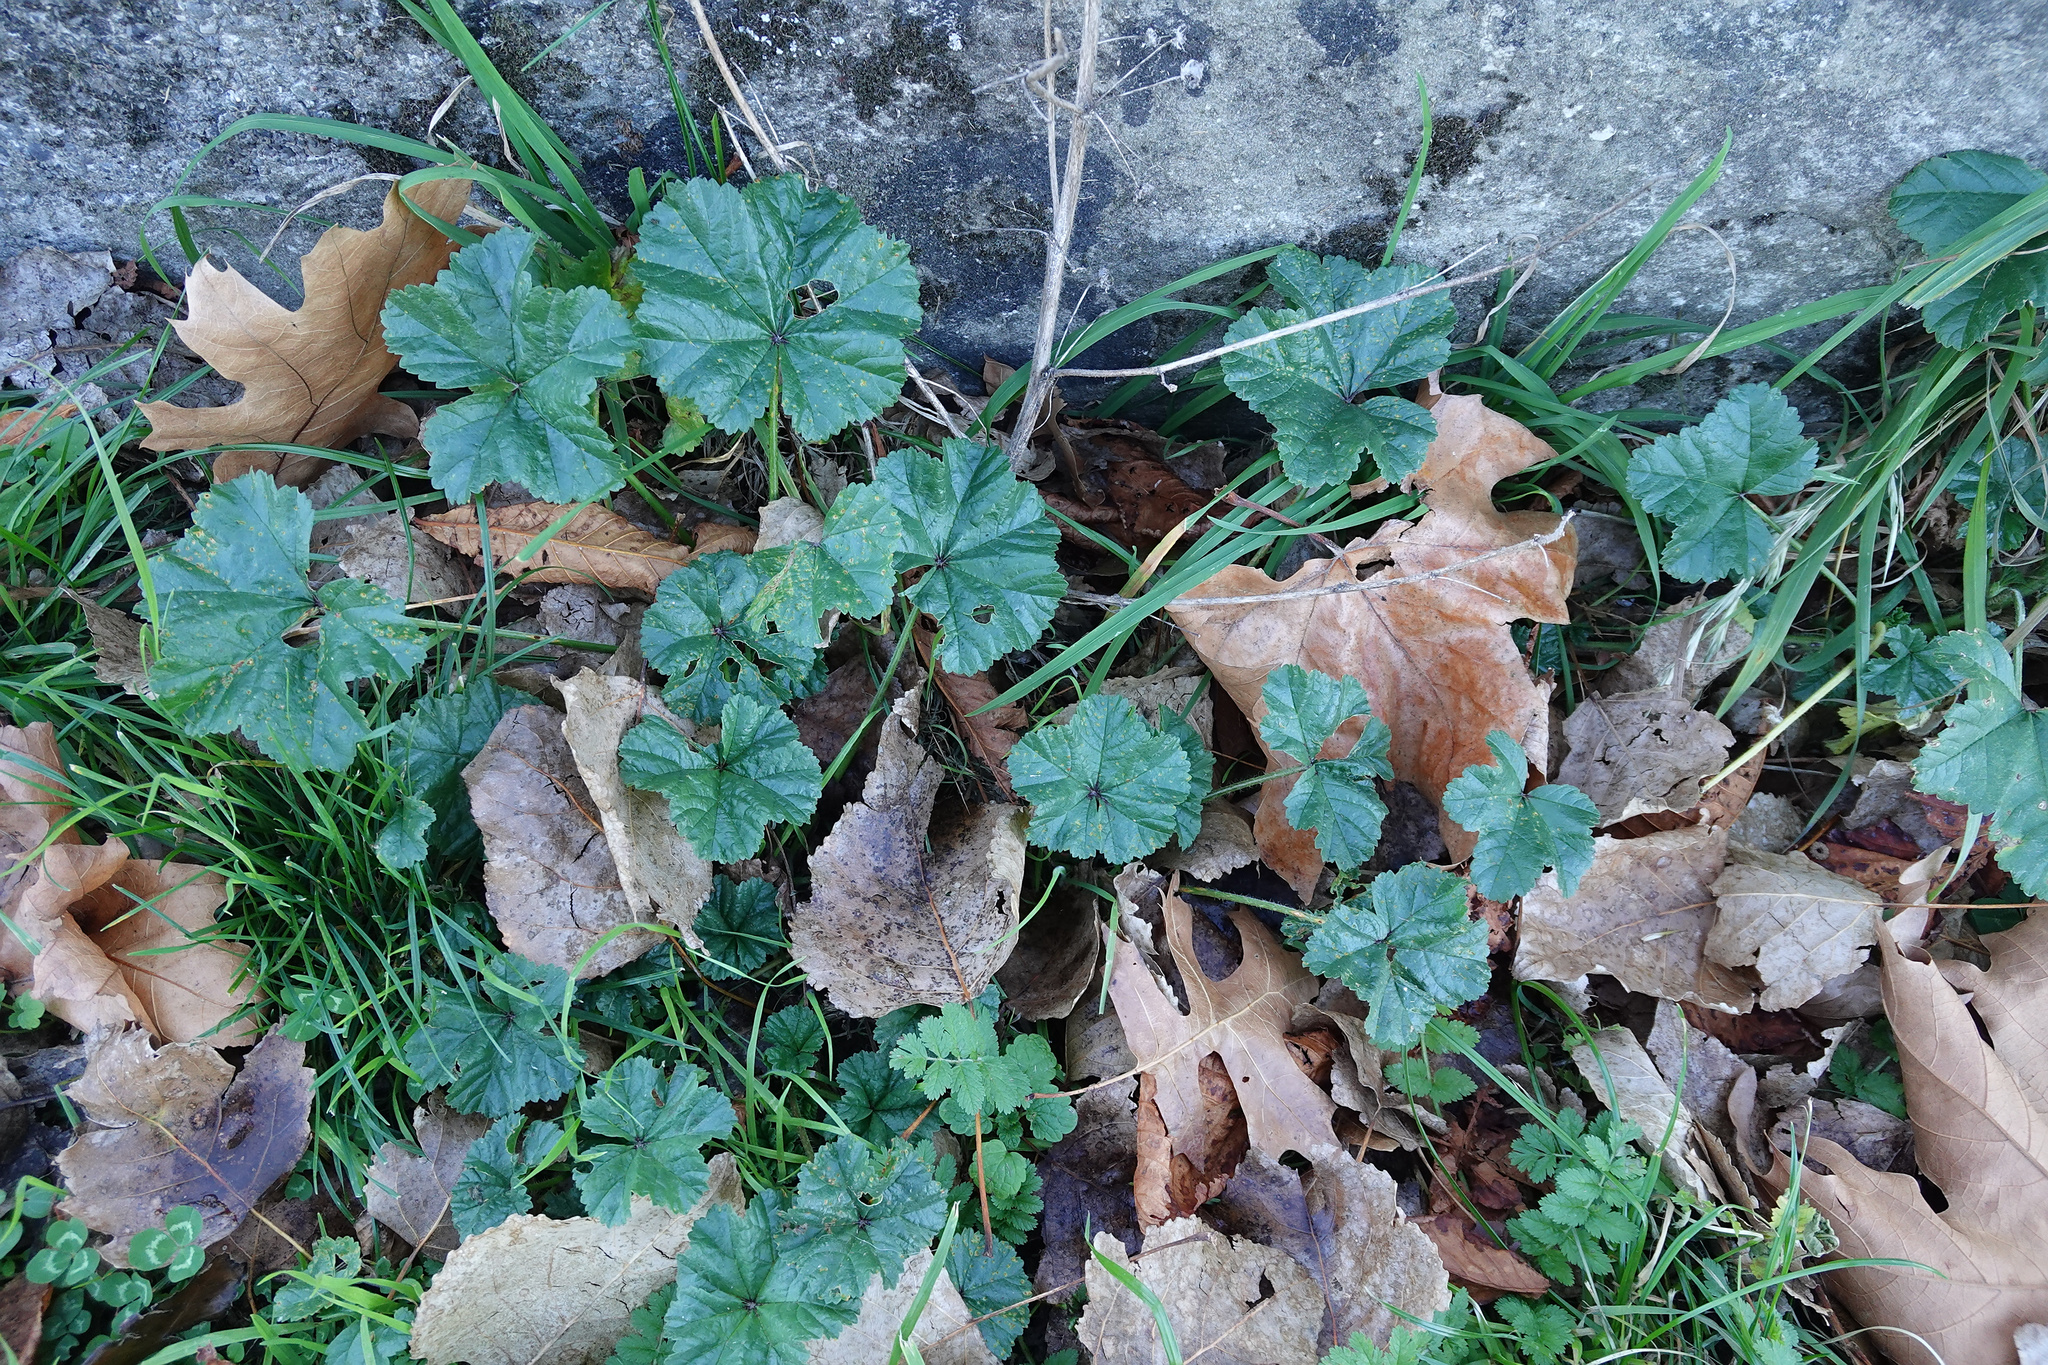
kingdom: Plantae
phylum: Tracheophyta
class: Magnoliopsida
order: Malvales
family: Malvaceae
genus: Malva
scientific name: Malva sylvestris
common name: Common mallow
